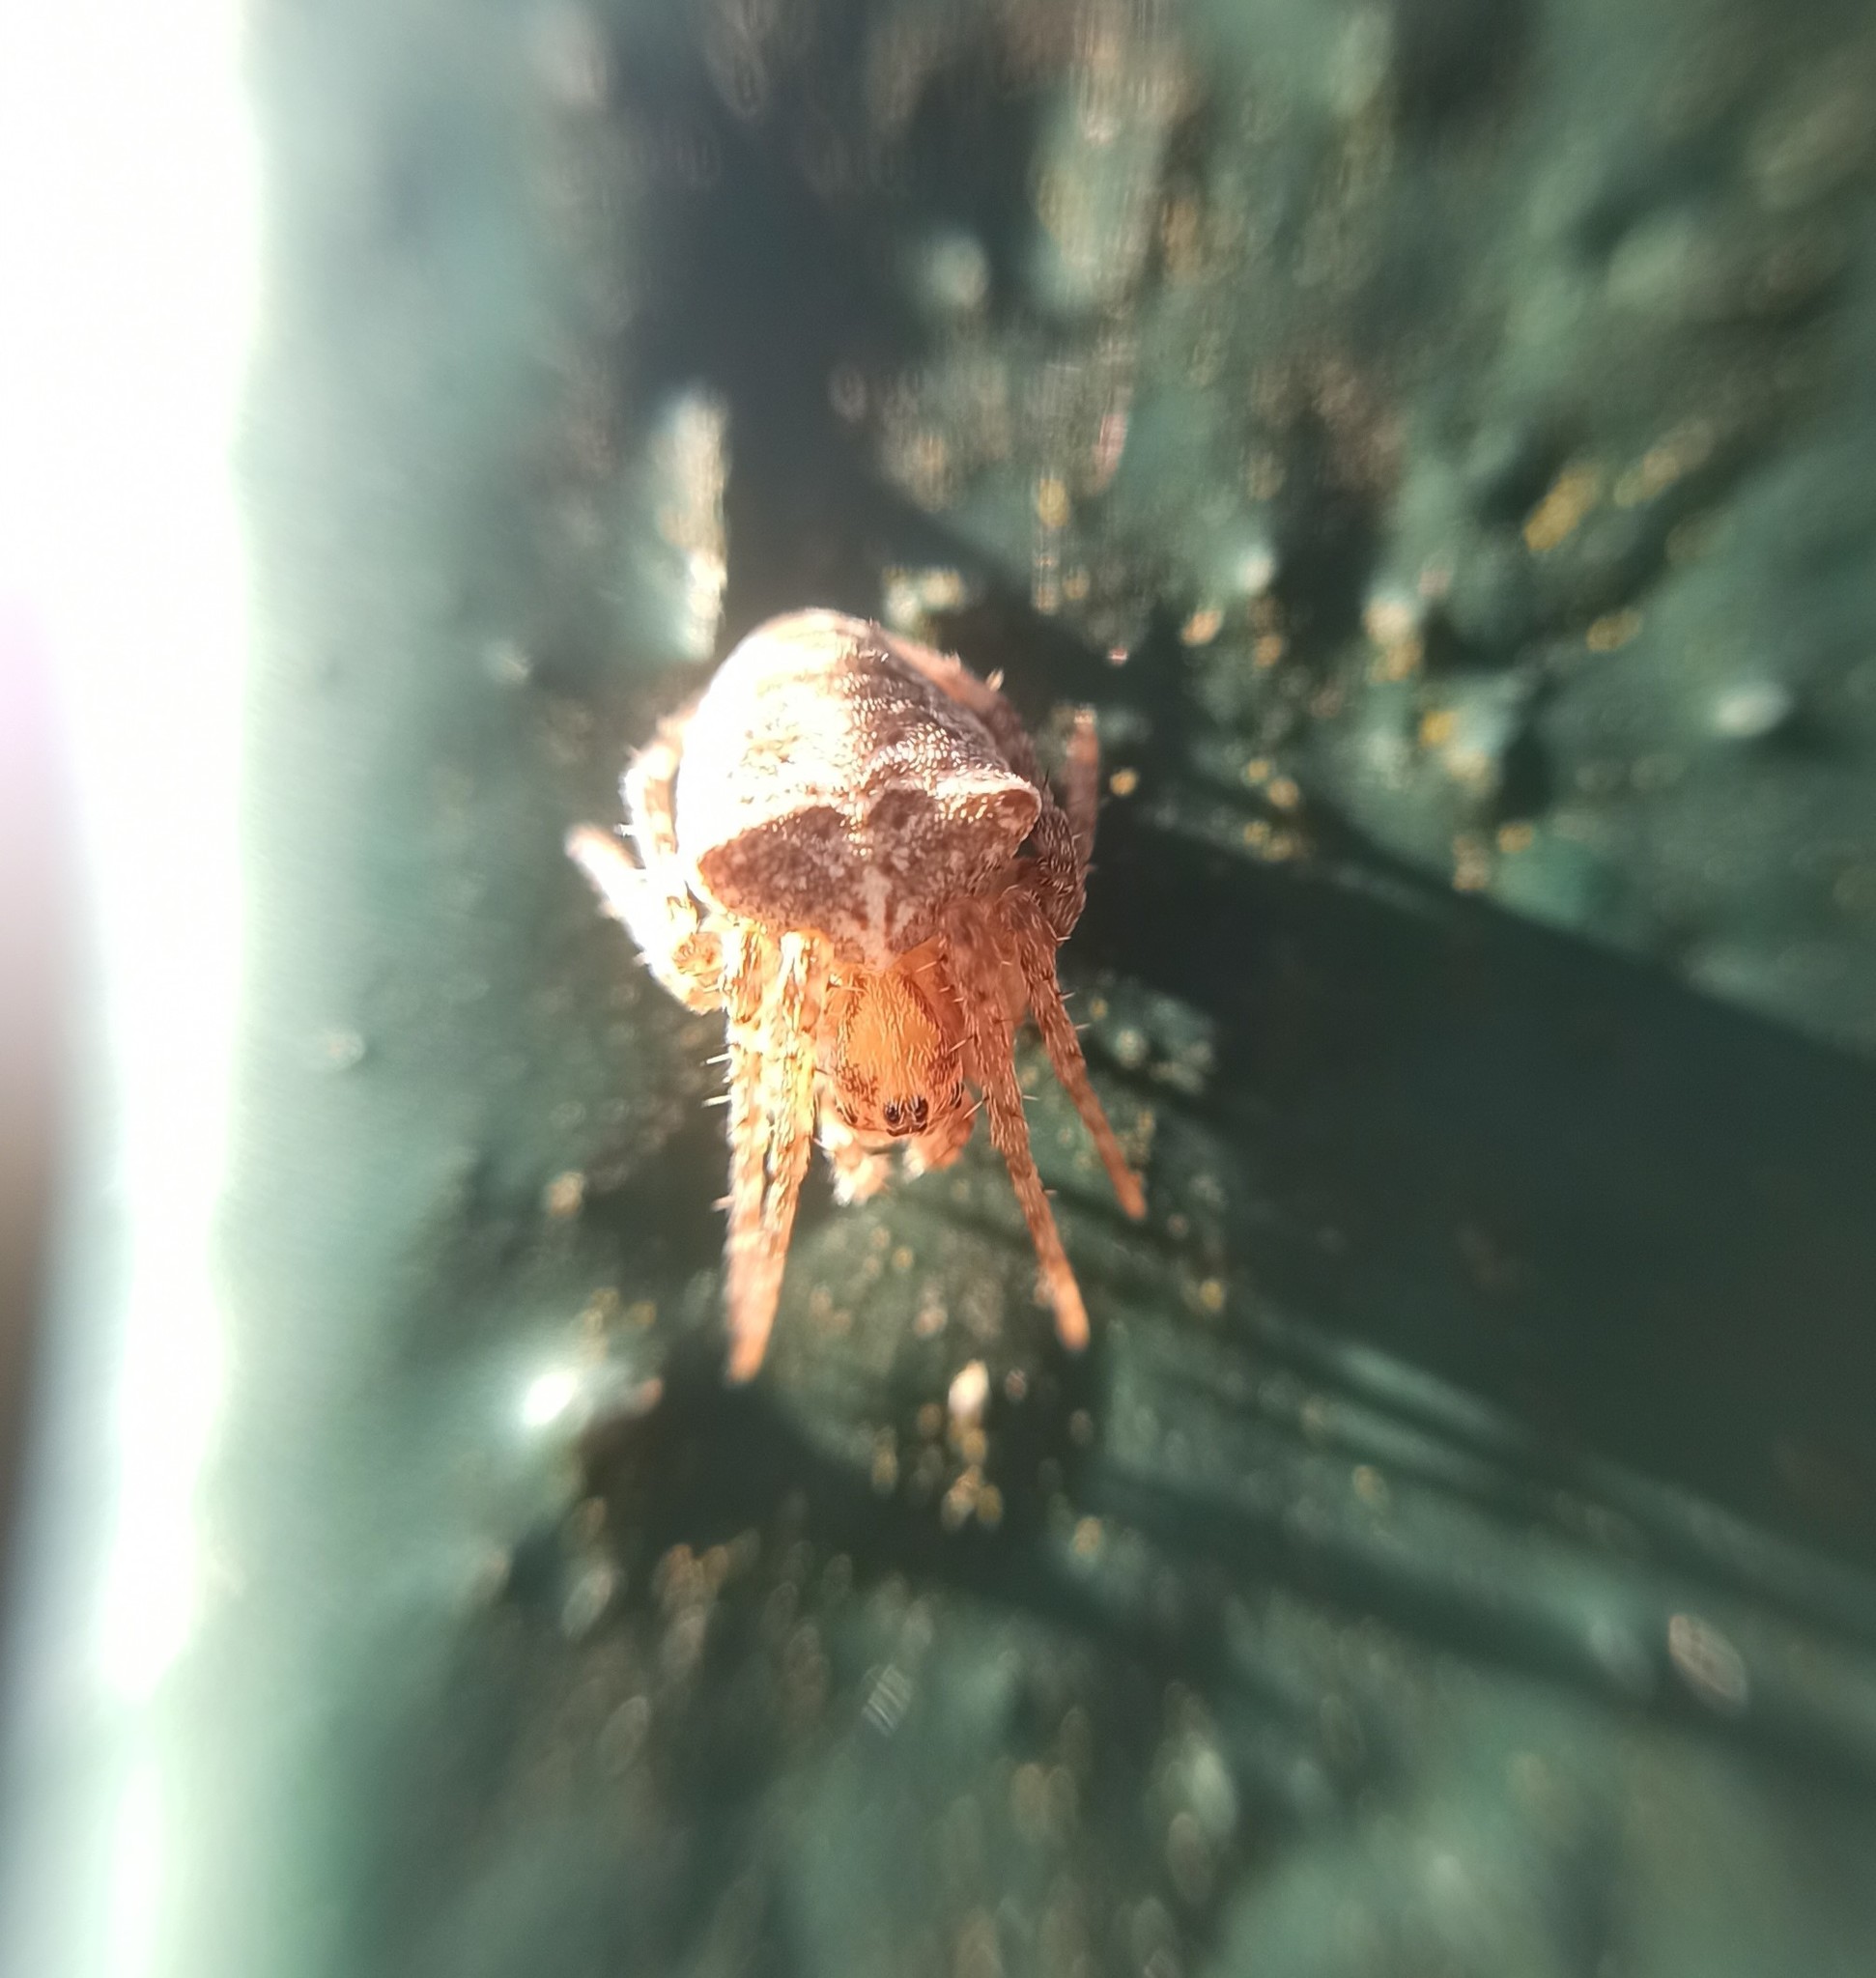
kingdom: Animalia
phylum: Arthropoda
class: Arachnida
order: Araneae
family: Araneidae
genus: Gibbaranea
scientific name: Gibbaranea bituberculata
